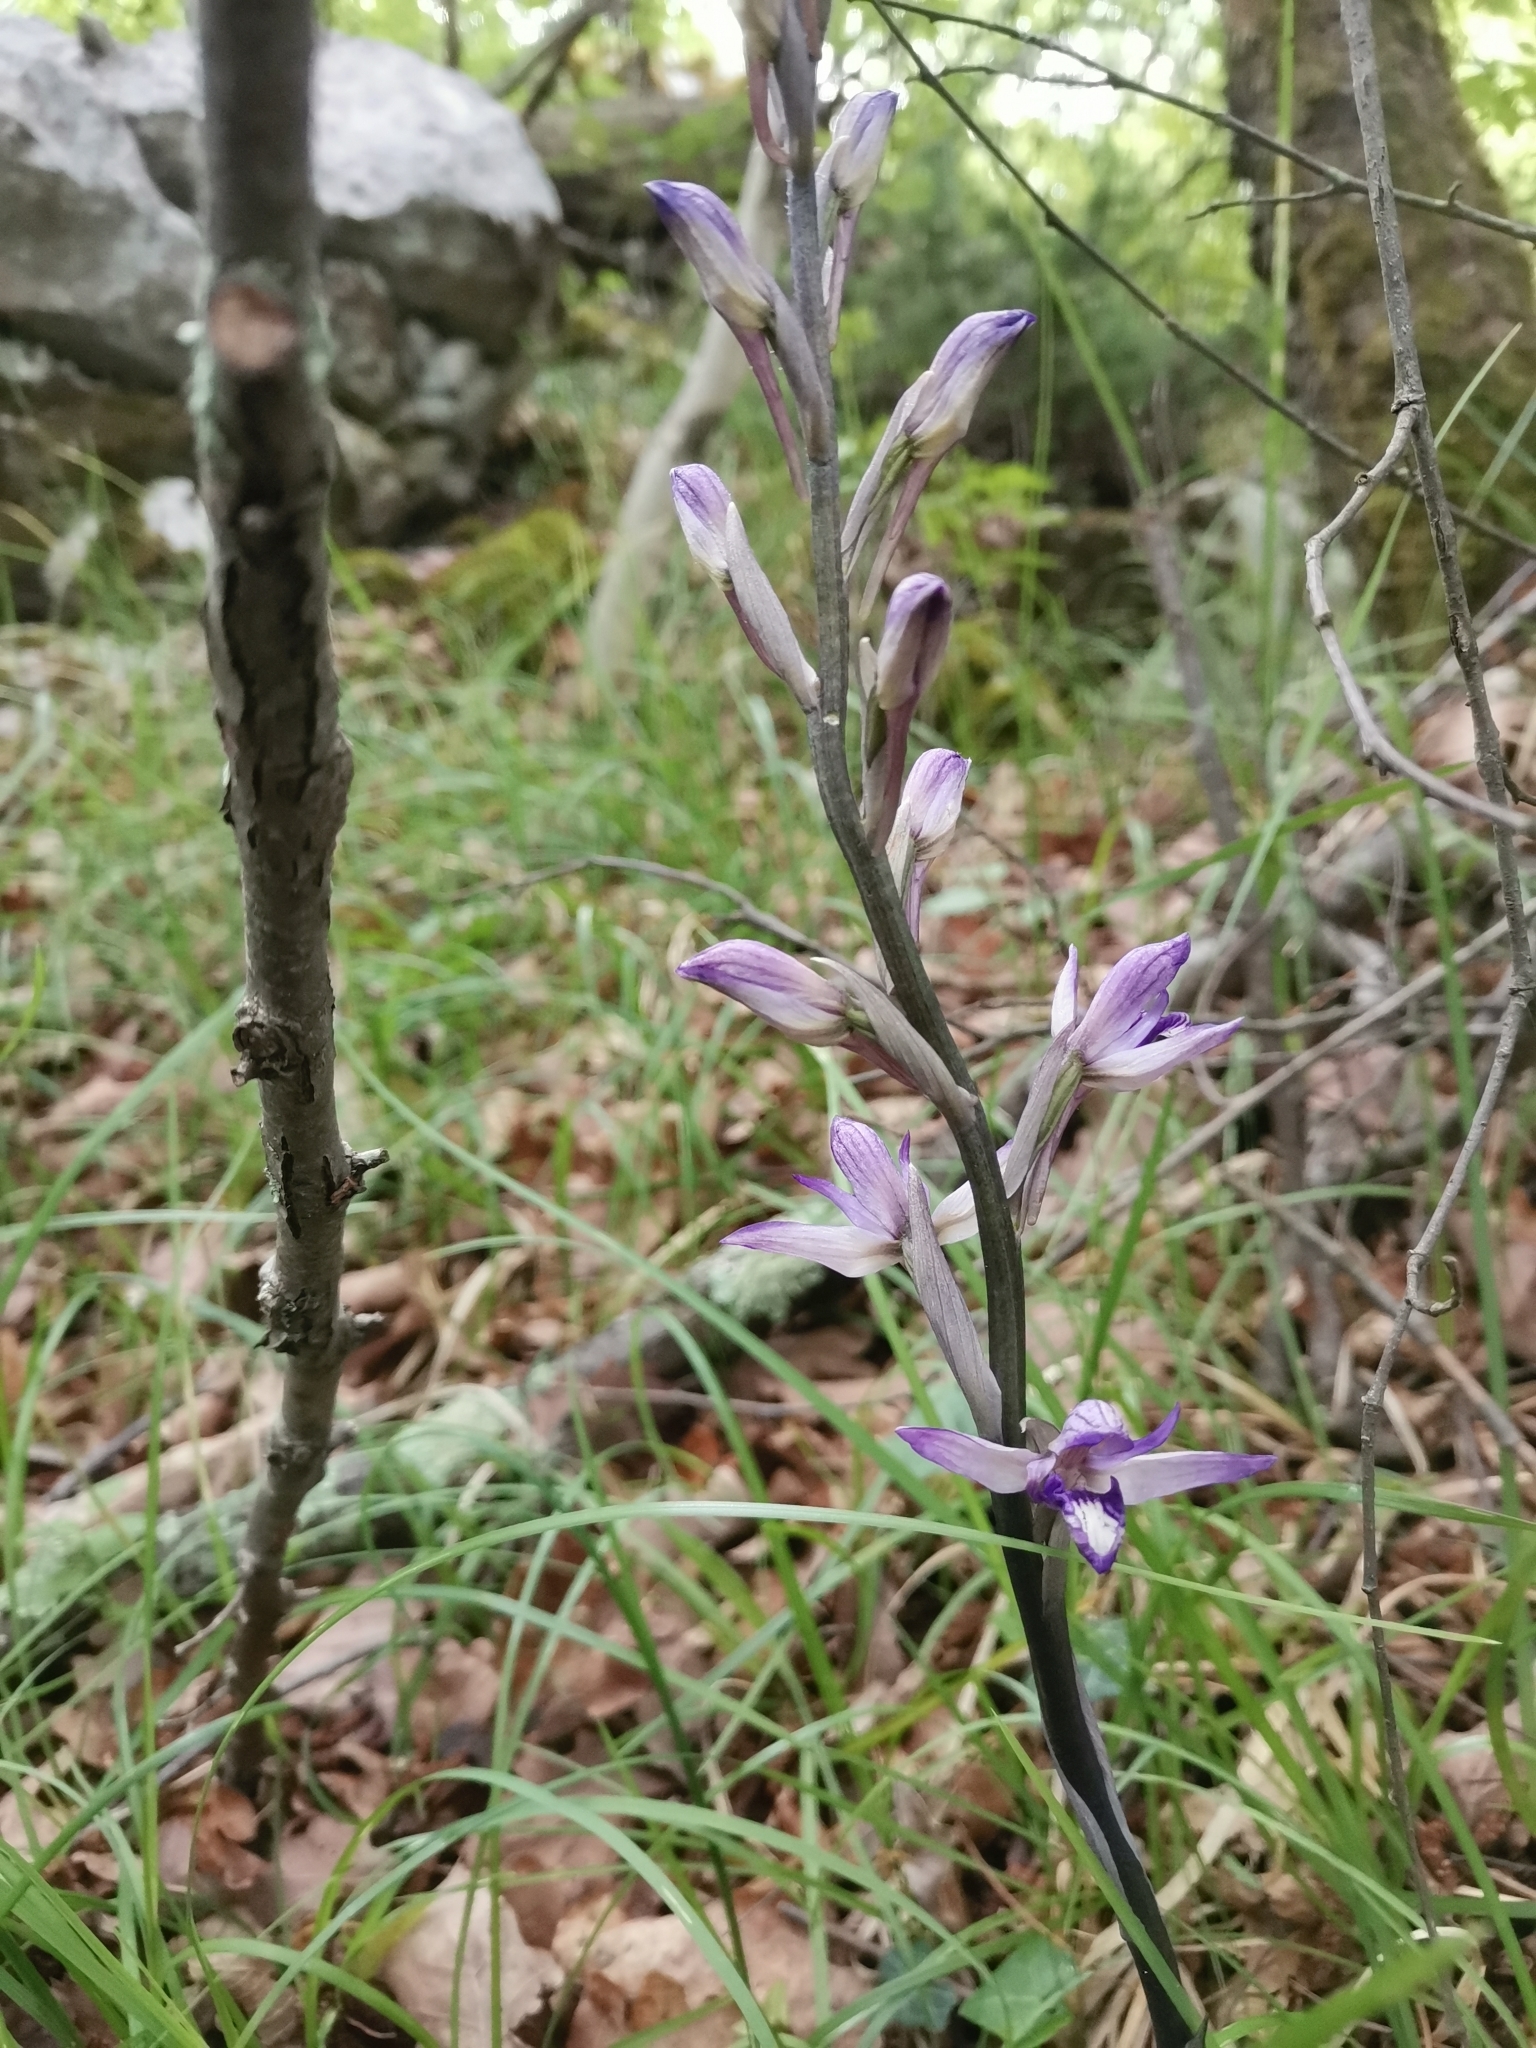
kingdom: Plantae
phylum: Tracheophyta
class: Liliopsida
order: Asparagales
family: Orchidaceae
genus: Limodorum
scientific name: Limodorum abortivum
